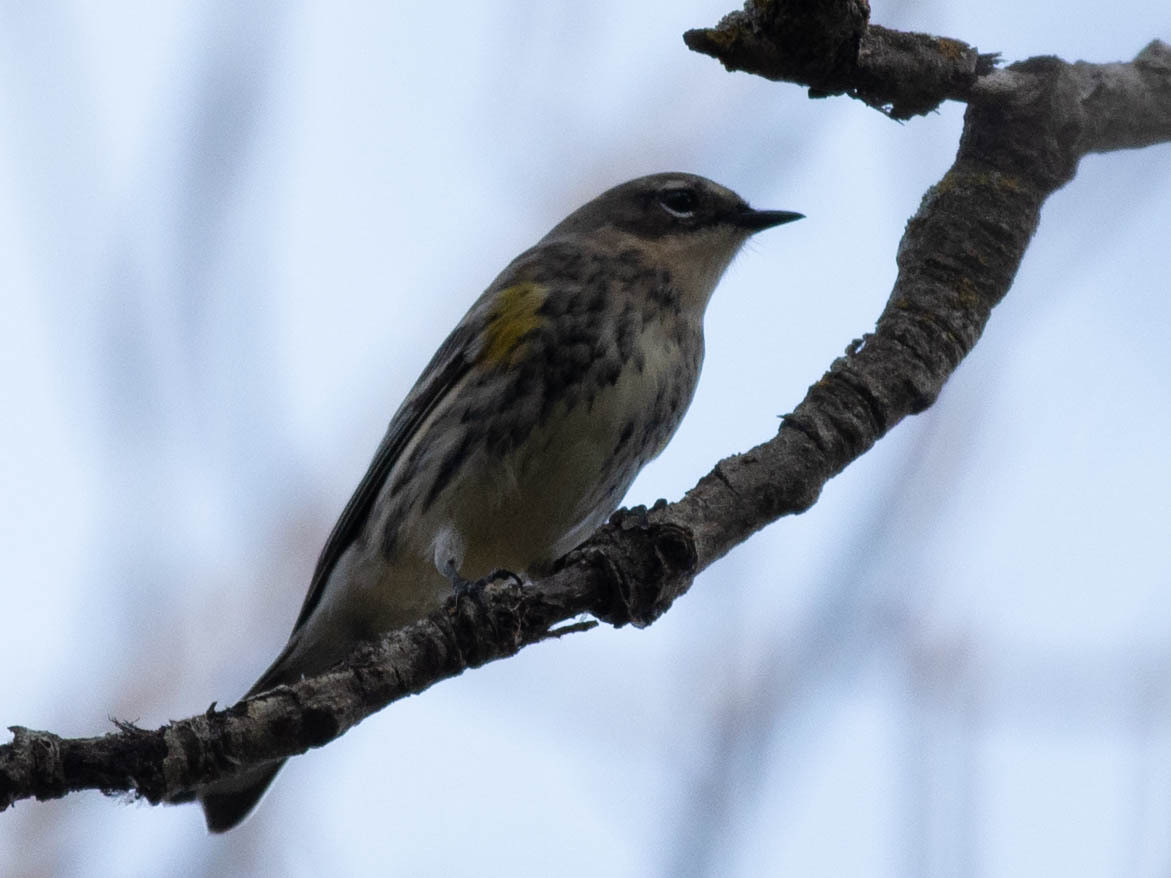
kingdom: Animalia
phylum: Chordata
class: Aves
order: Passeriformes
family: Parulidae
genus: Setophaga
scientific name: Setophaga coronata
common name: Myrtle warbler
